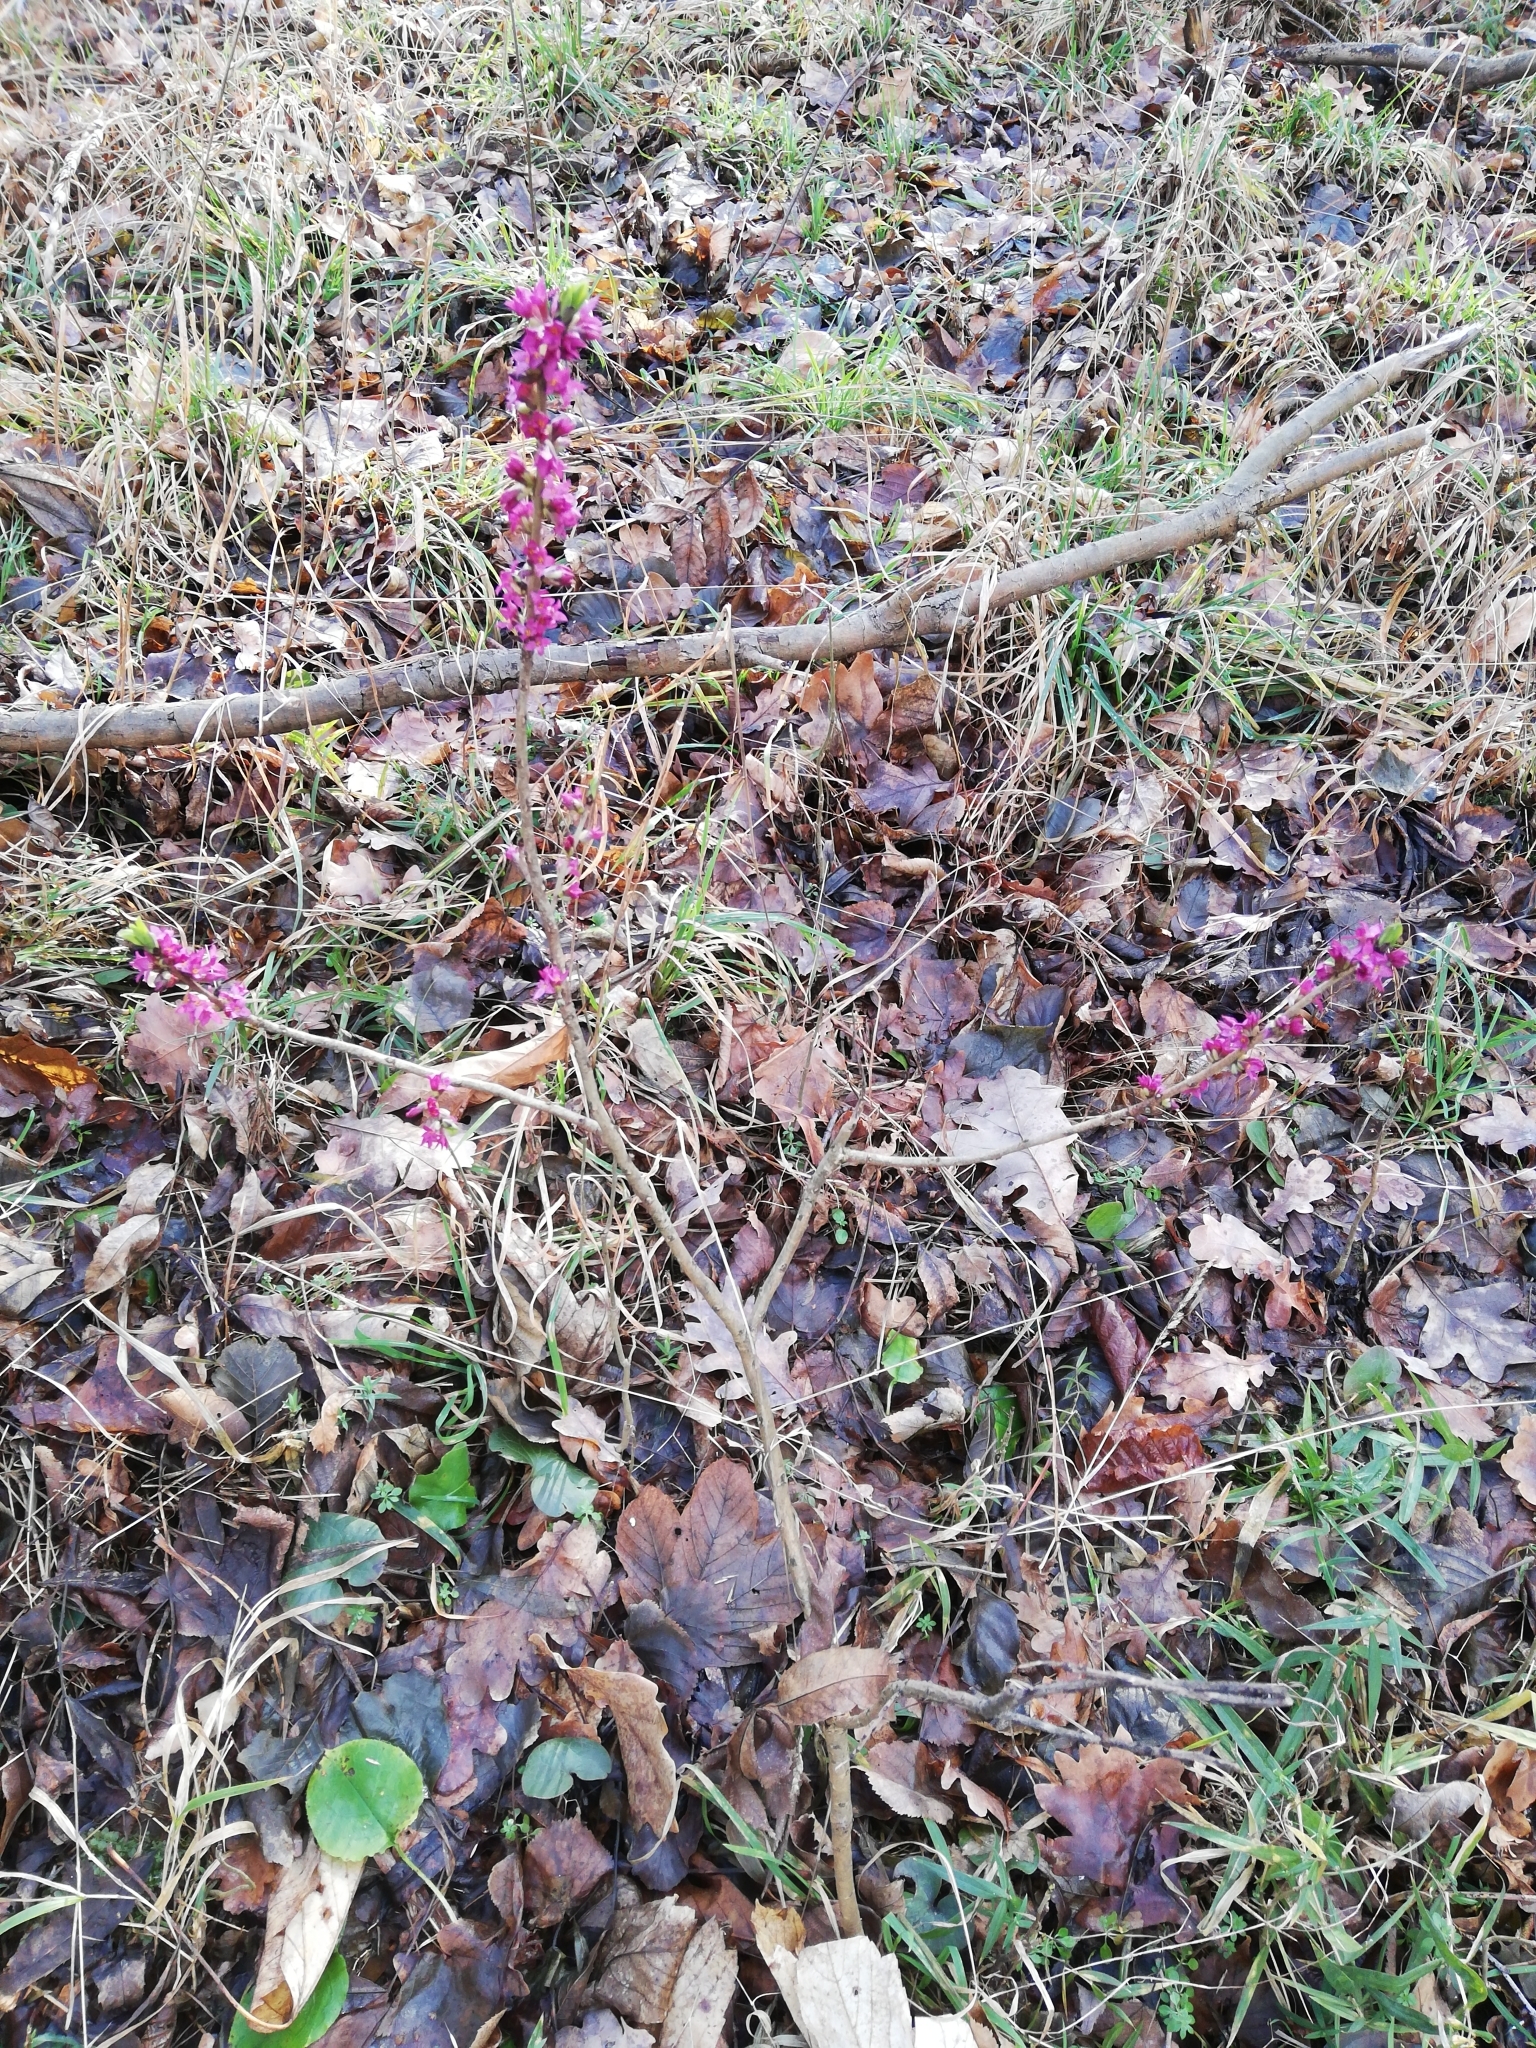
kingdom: Plantae
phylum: Tracheophyta
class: Magnoliopsida
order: Malvales
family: Thymelaeaceae
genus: Daphne
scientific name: Daphne mezereum
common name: Mezereon
